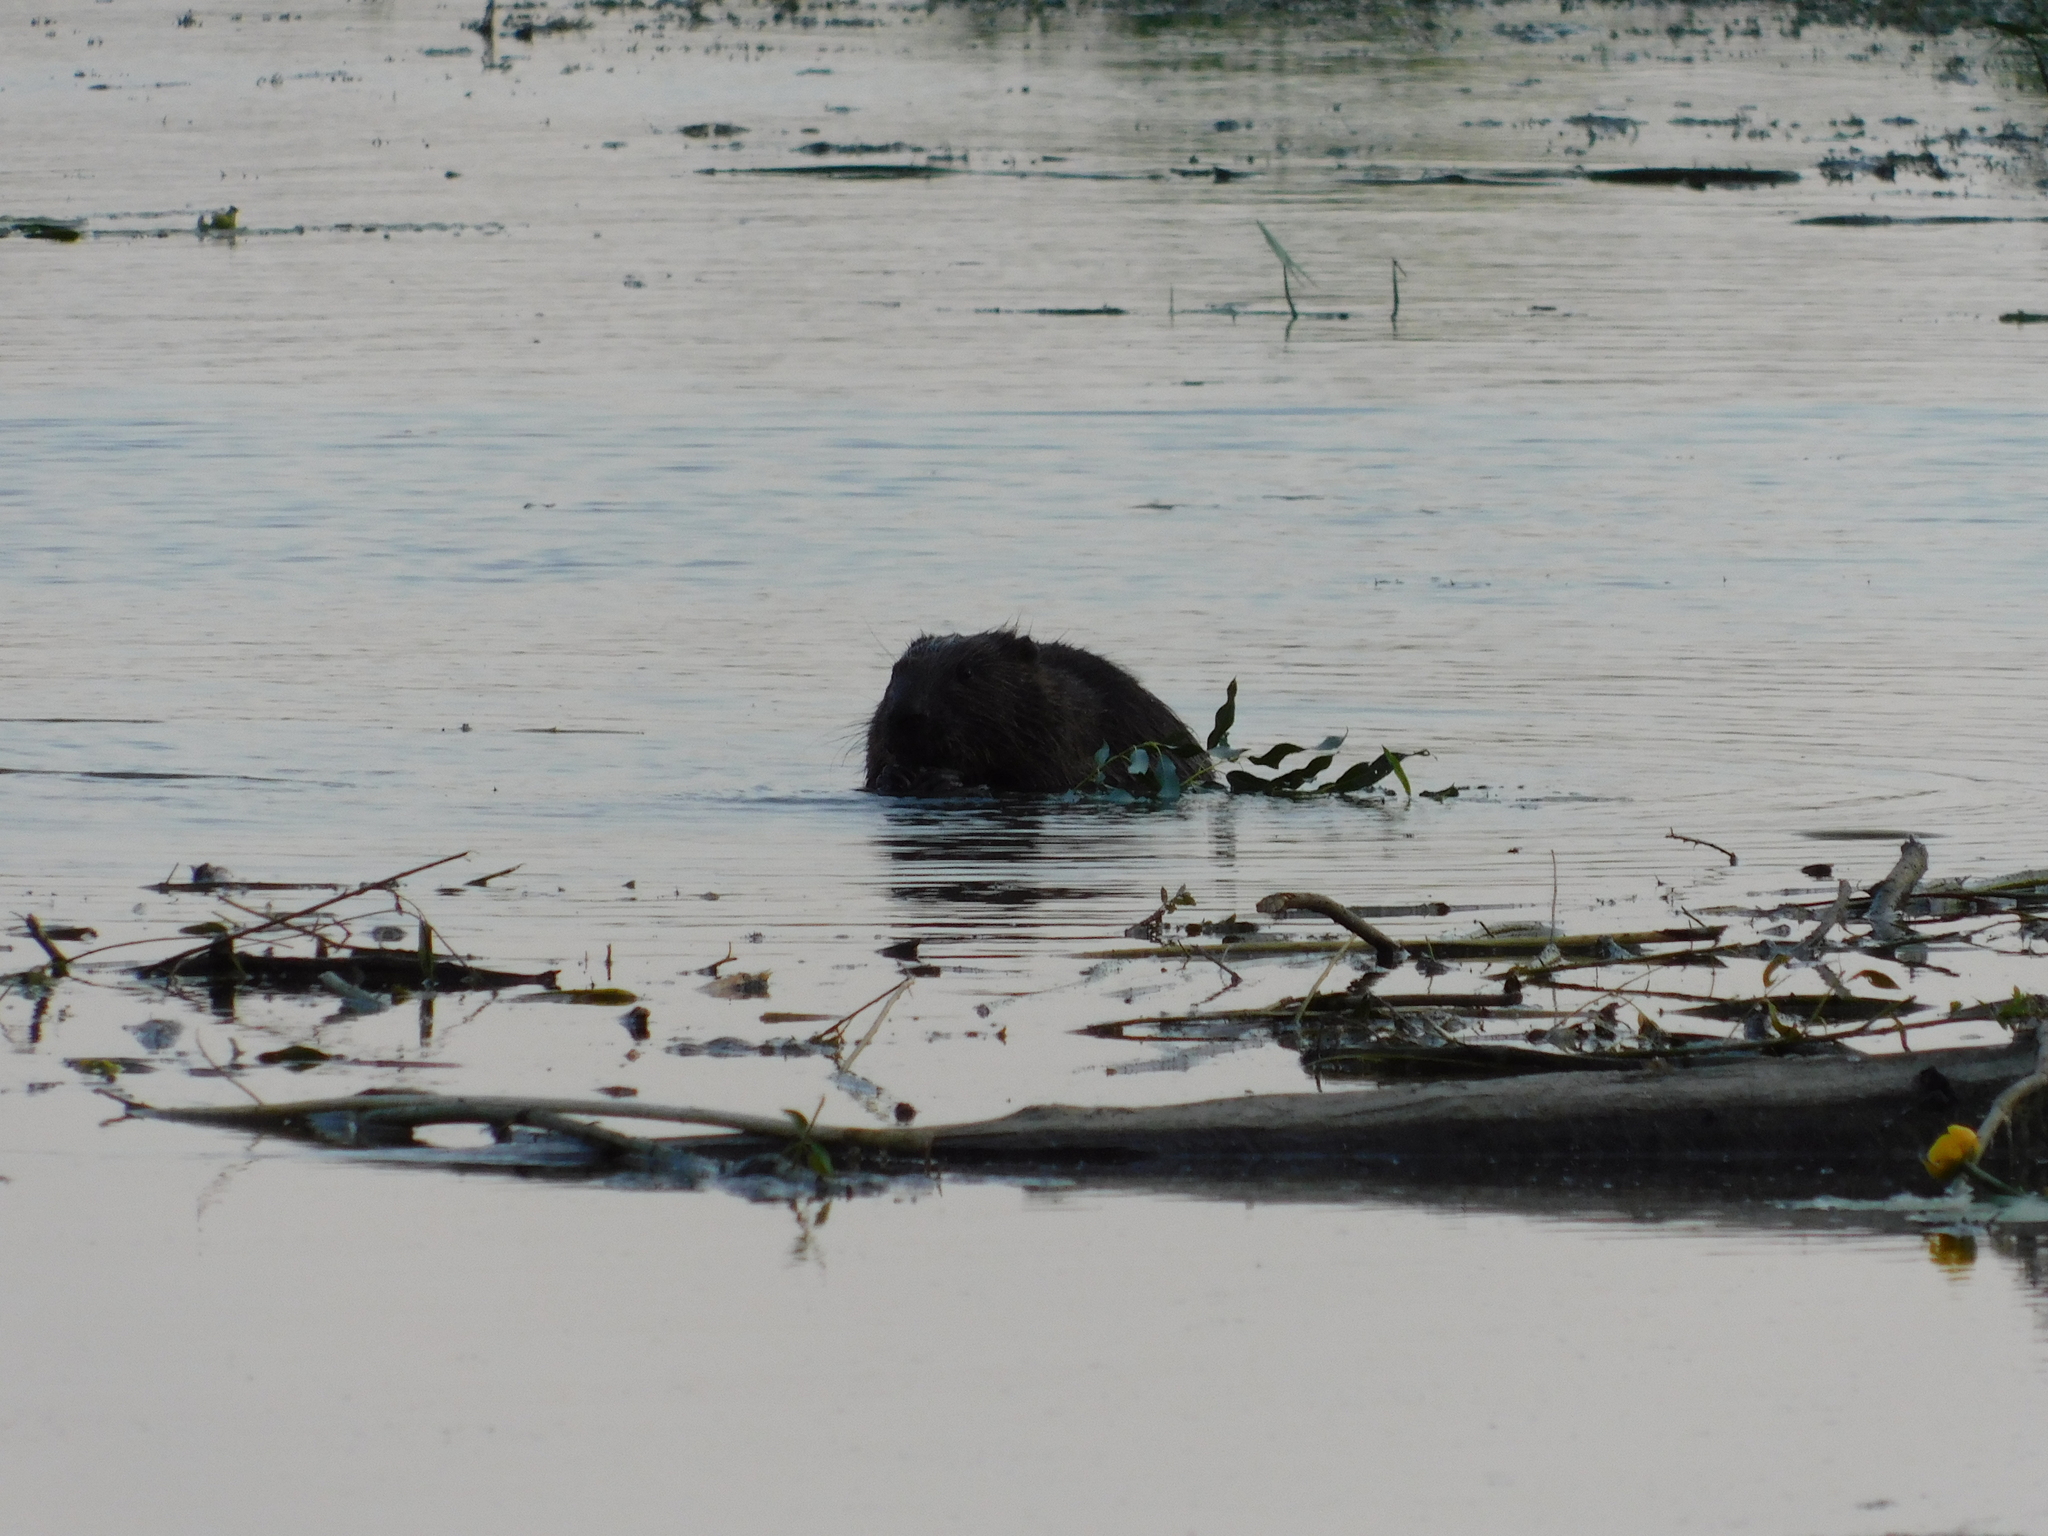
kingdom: Animalia
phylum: Chordata
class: Mammalia
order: Rodentia
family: Castoridae
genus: Castor
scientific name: Castor fiber
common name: Eurasian beaver
